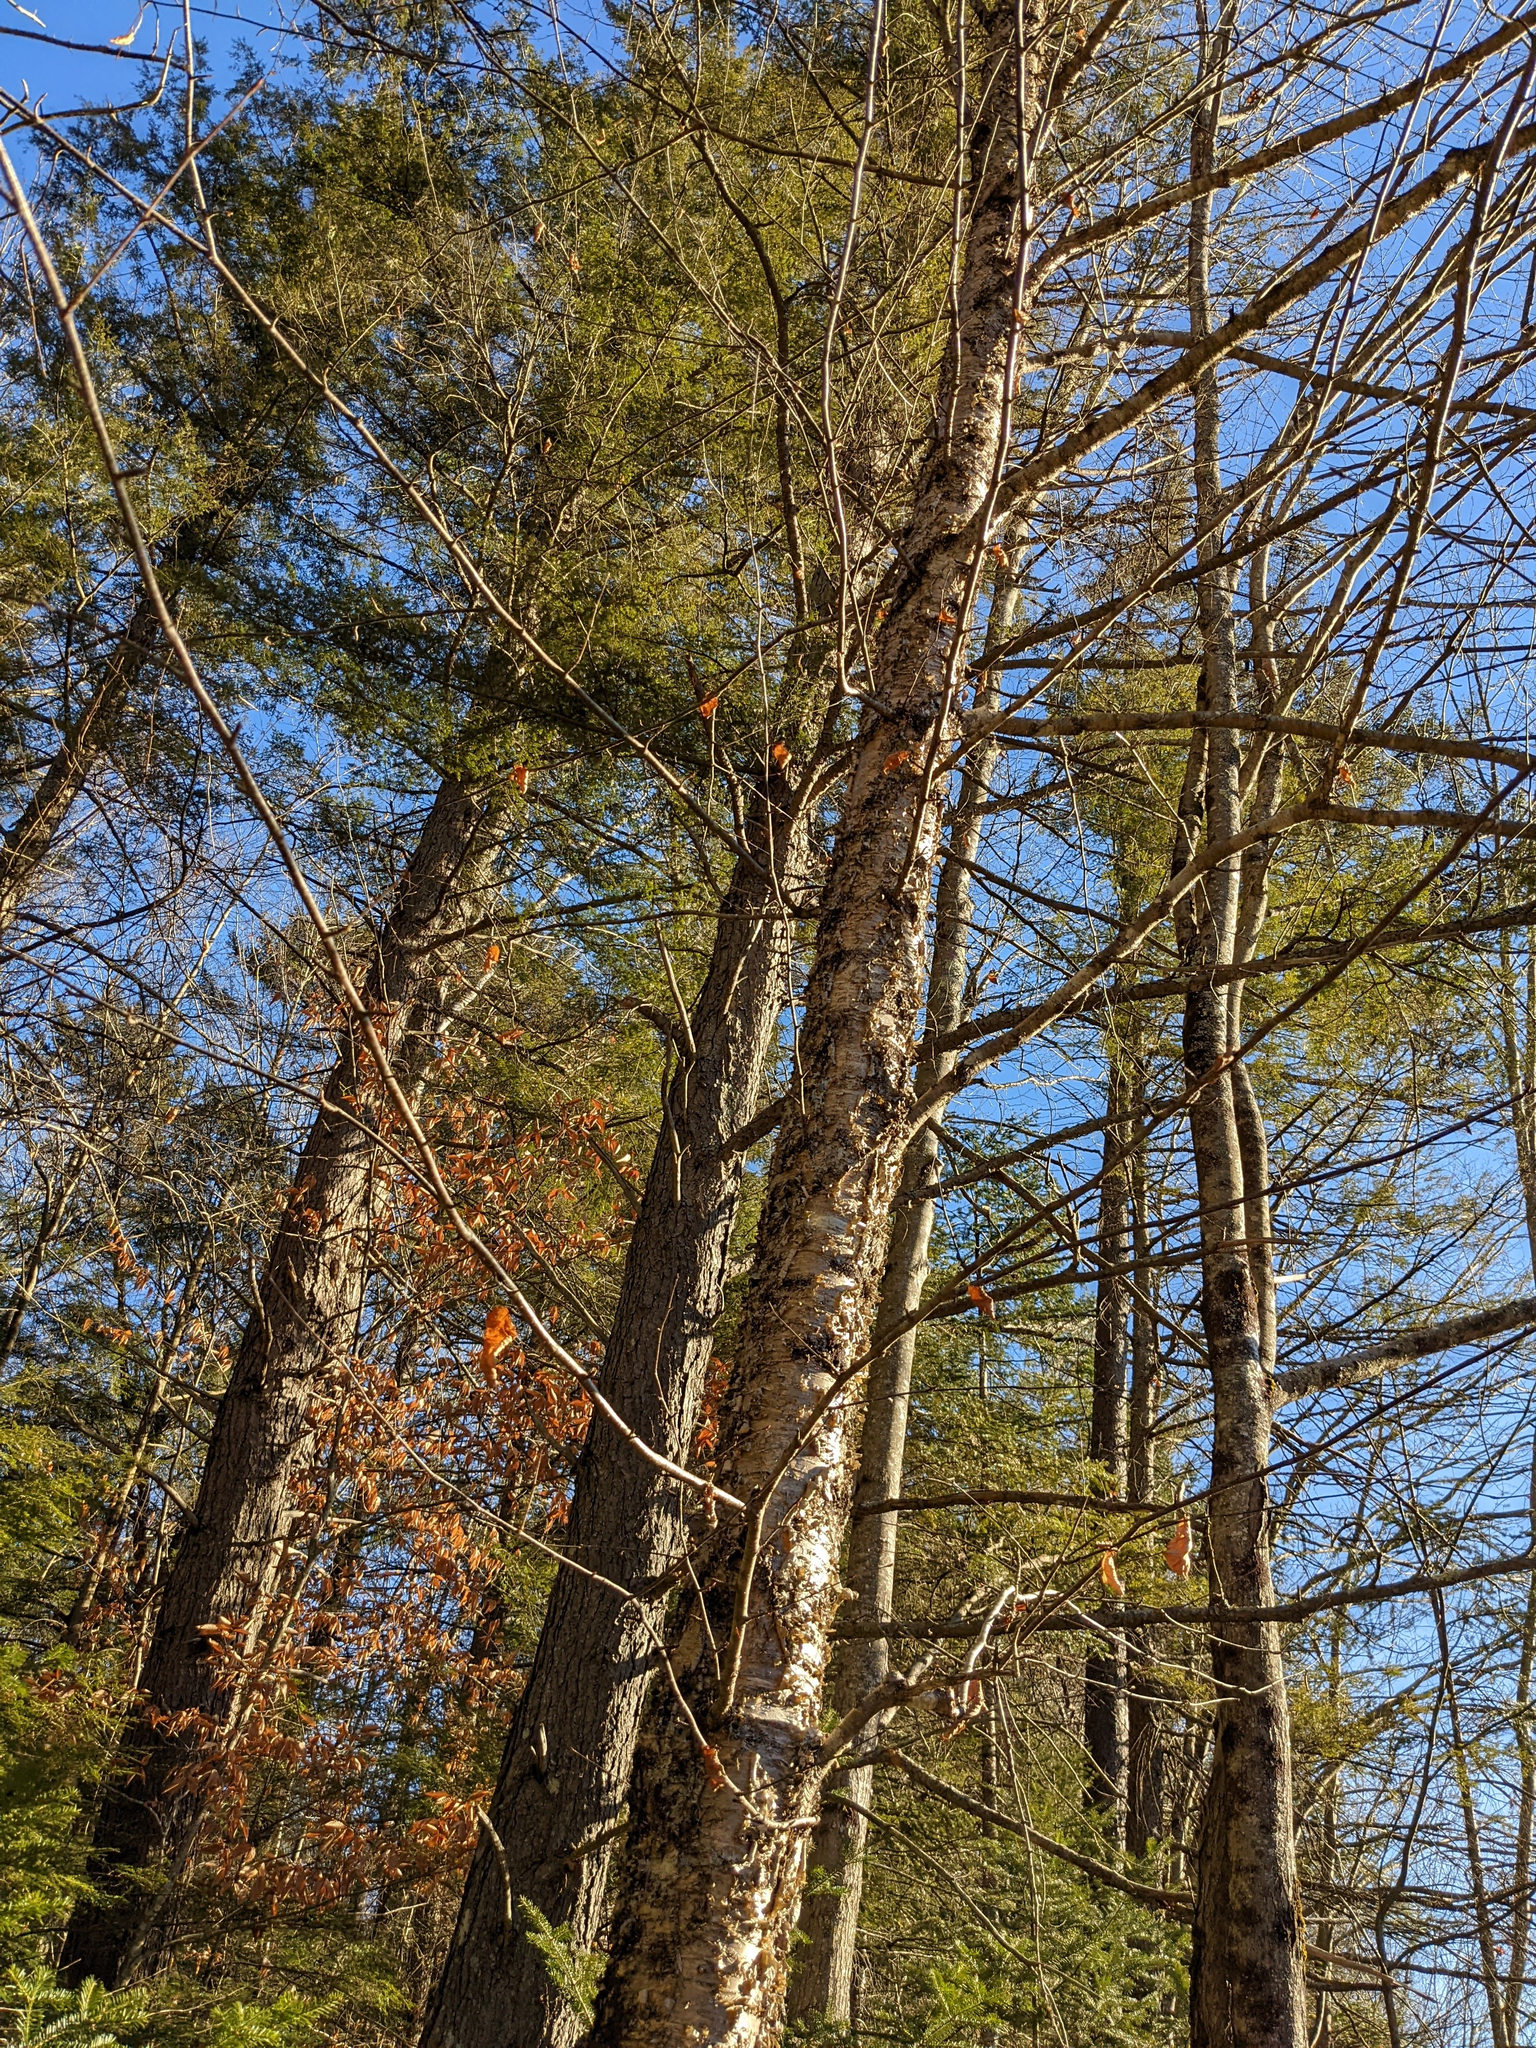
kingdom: Plantae
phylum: Tracheophyta
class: Magnoliopsida
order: Fagales
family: Betulaceae
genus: Betula
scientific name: Betula alleghaniensis
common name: Yellow birch
